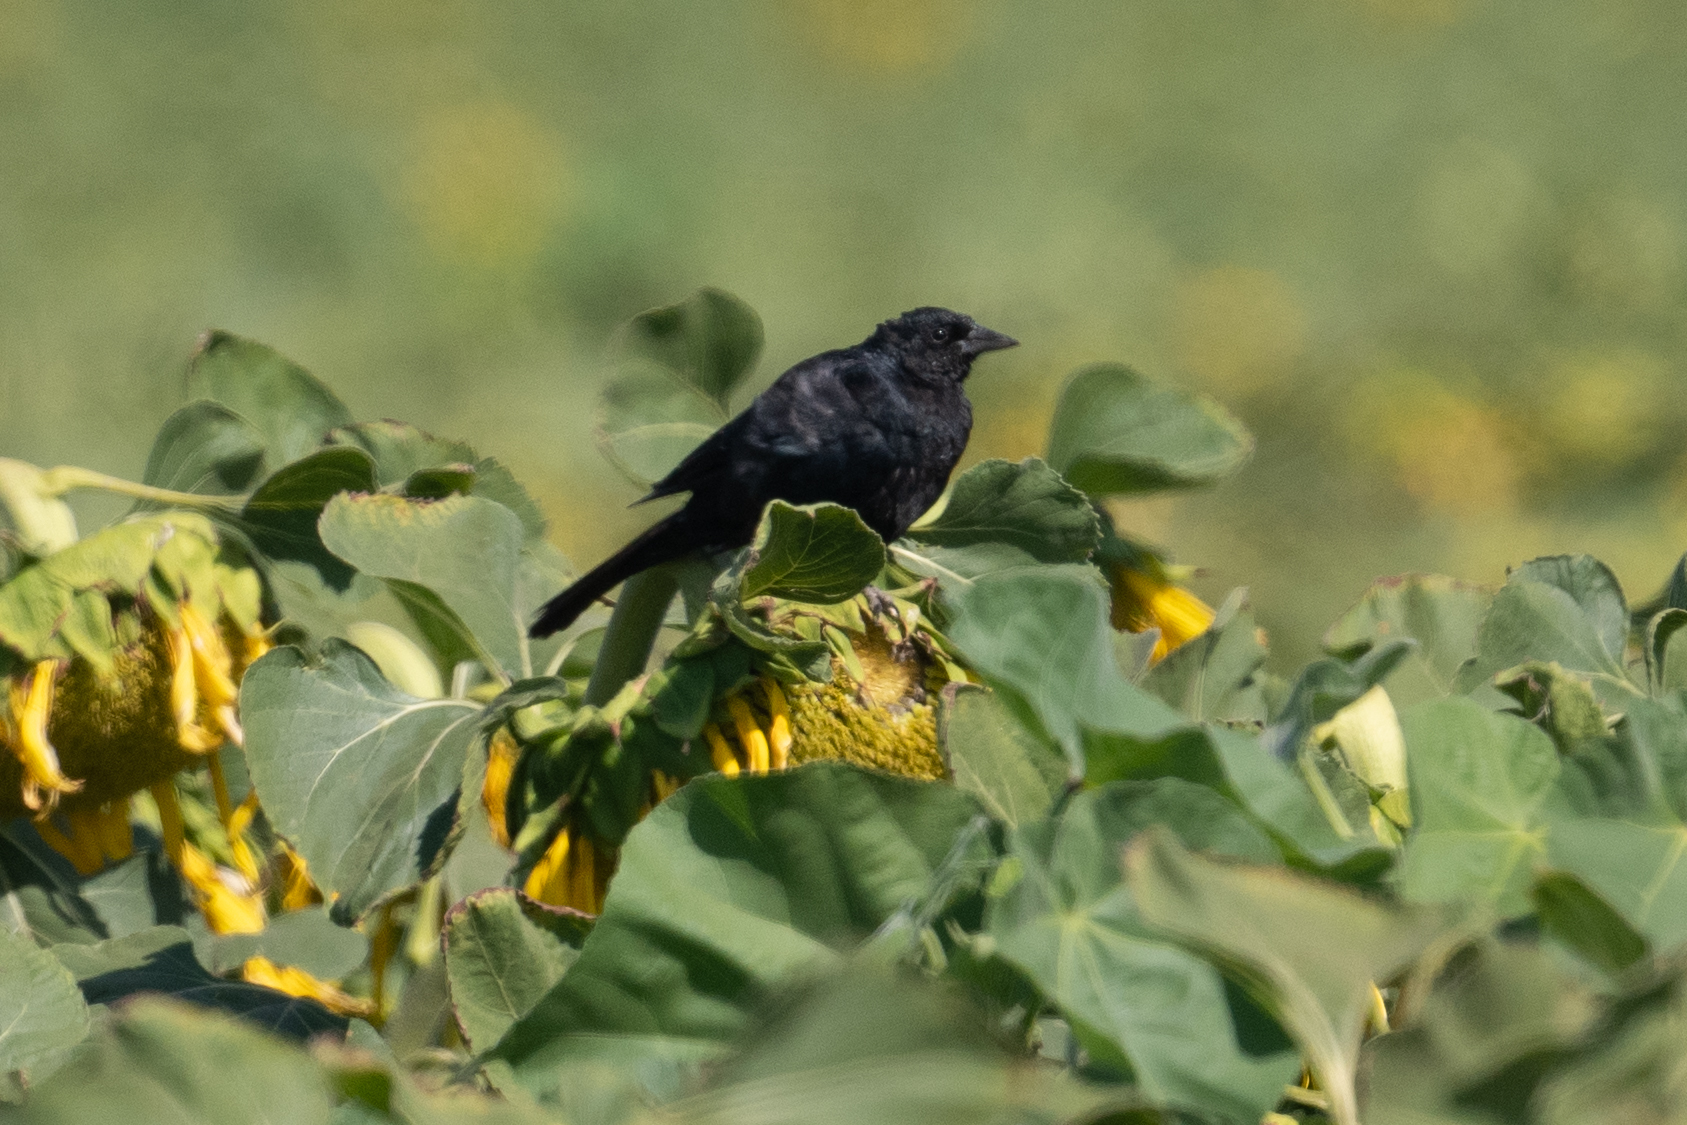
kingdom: Animalia
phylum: Chordata
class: Aves
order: Passeriformes
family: Icteridae
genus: Agelaius
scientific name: Agelaius tricolor
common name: Tricolored blackbird
